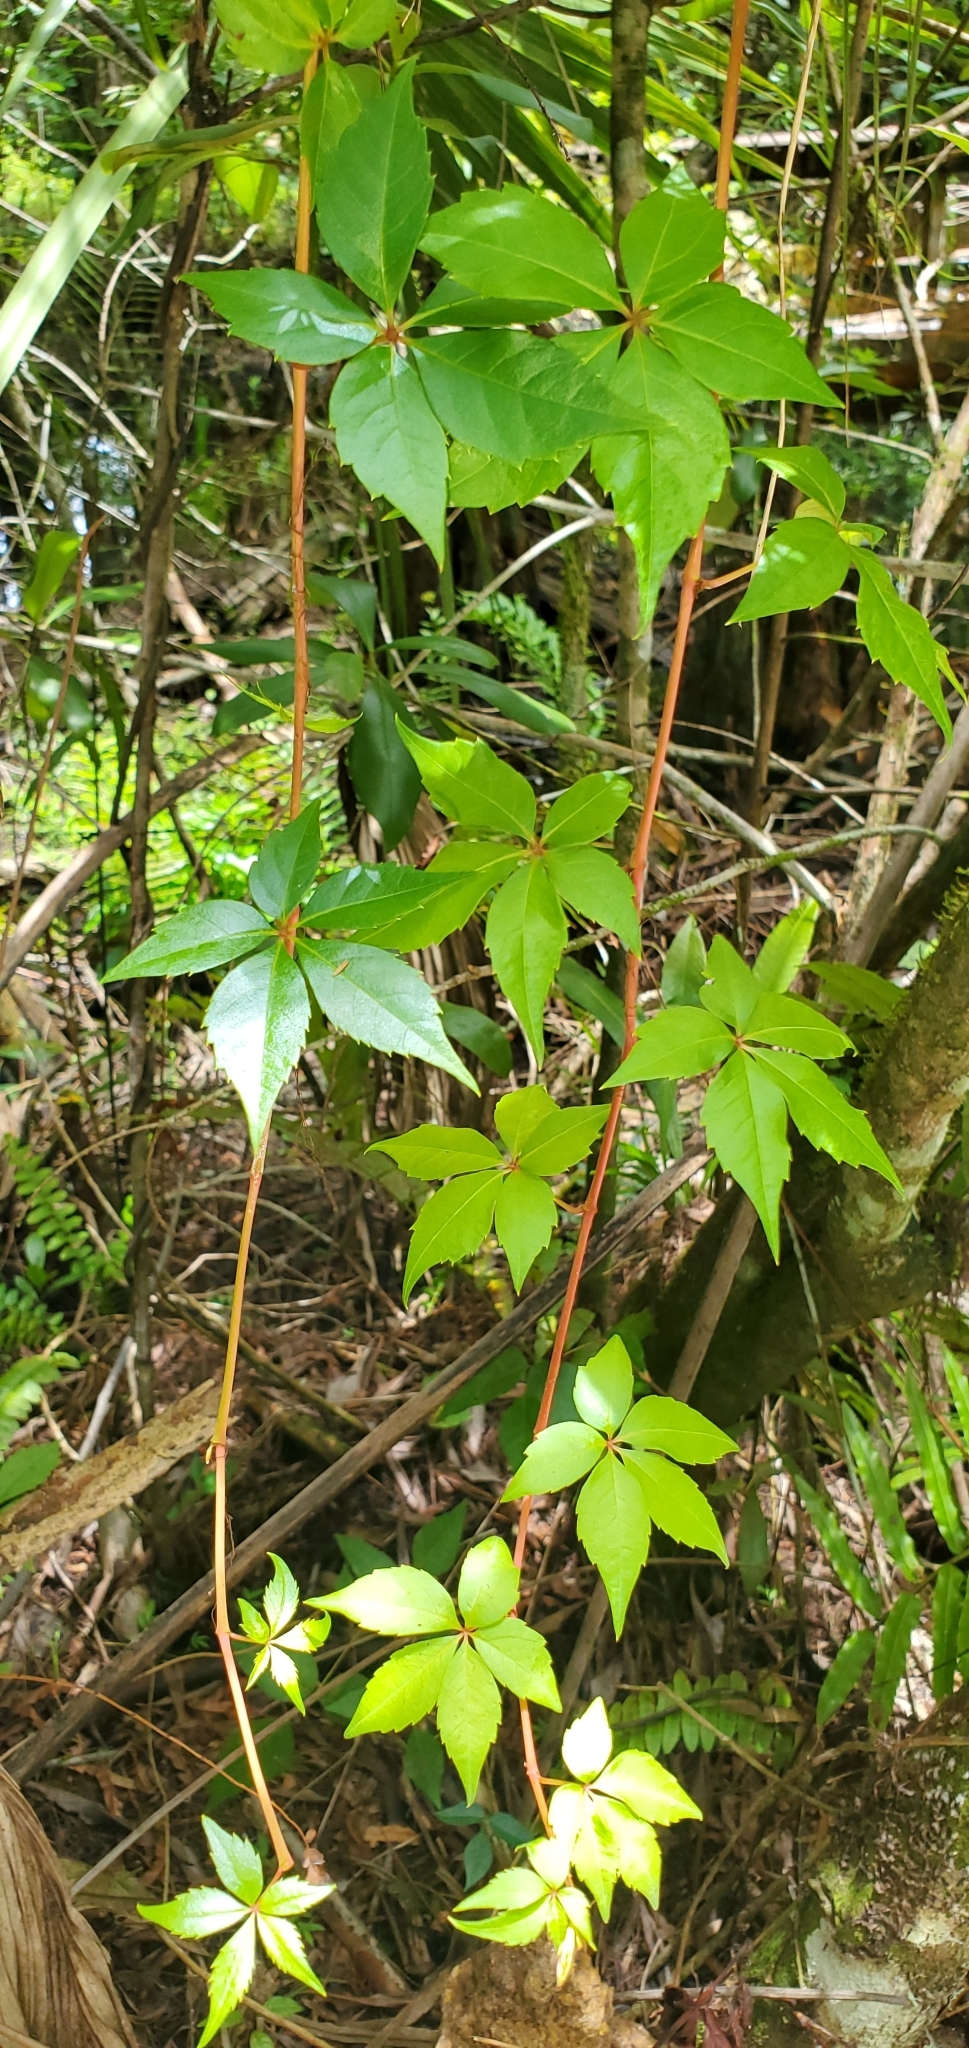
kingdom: Plantae
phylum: Tracheophyta
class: Magnoliopsida
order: Vitales
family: Vitaceae
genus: Parthenocissus
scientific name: Parthenocissus quinquefolia
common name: Virginia-creeper
